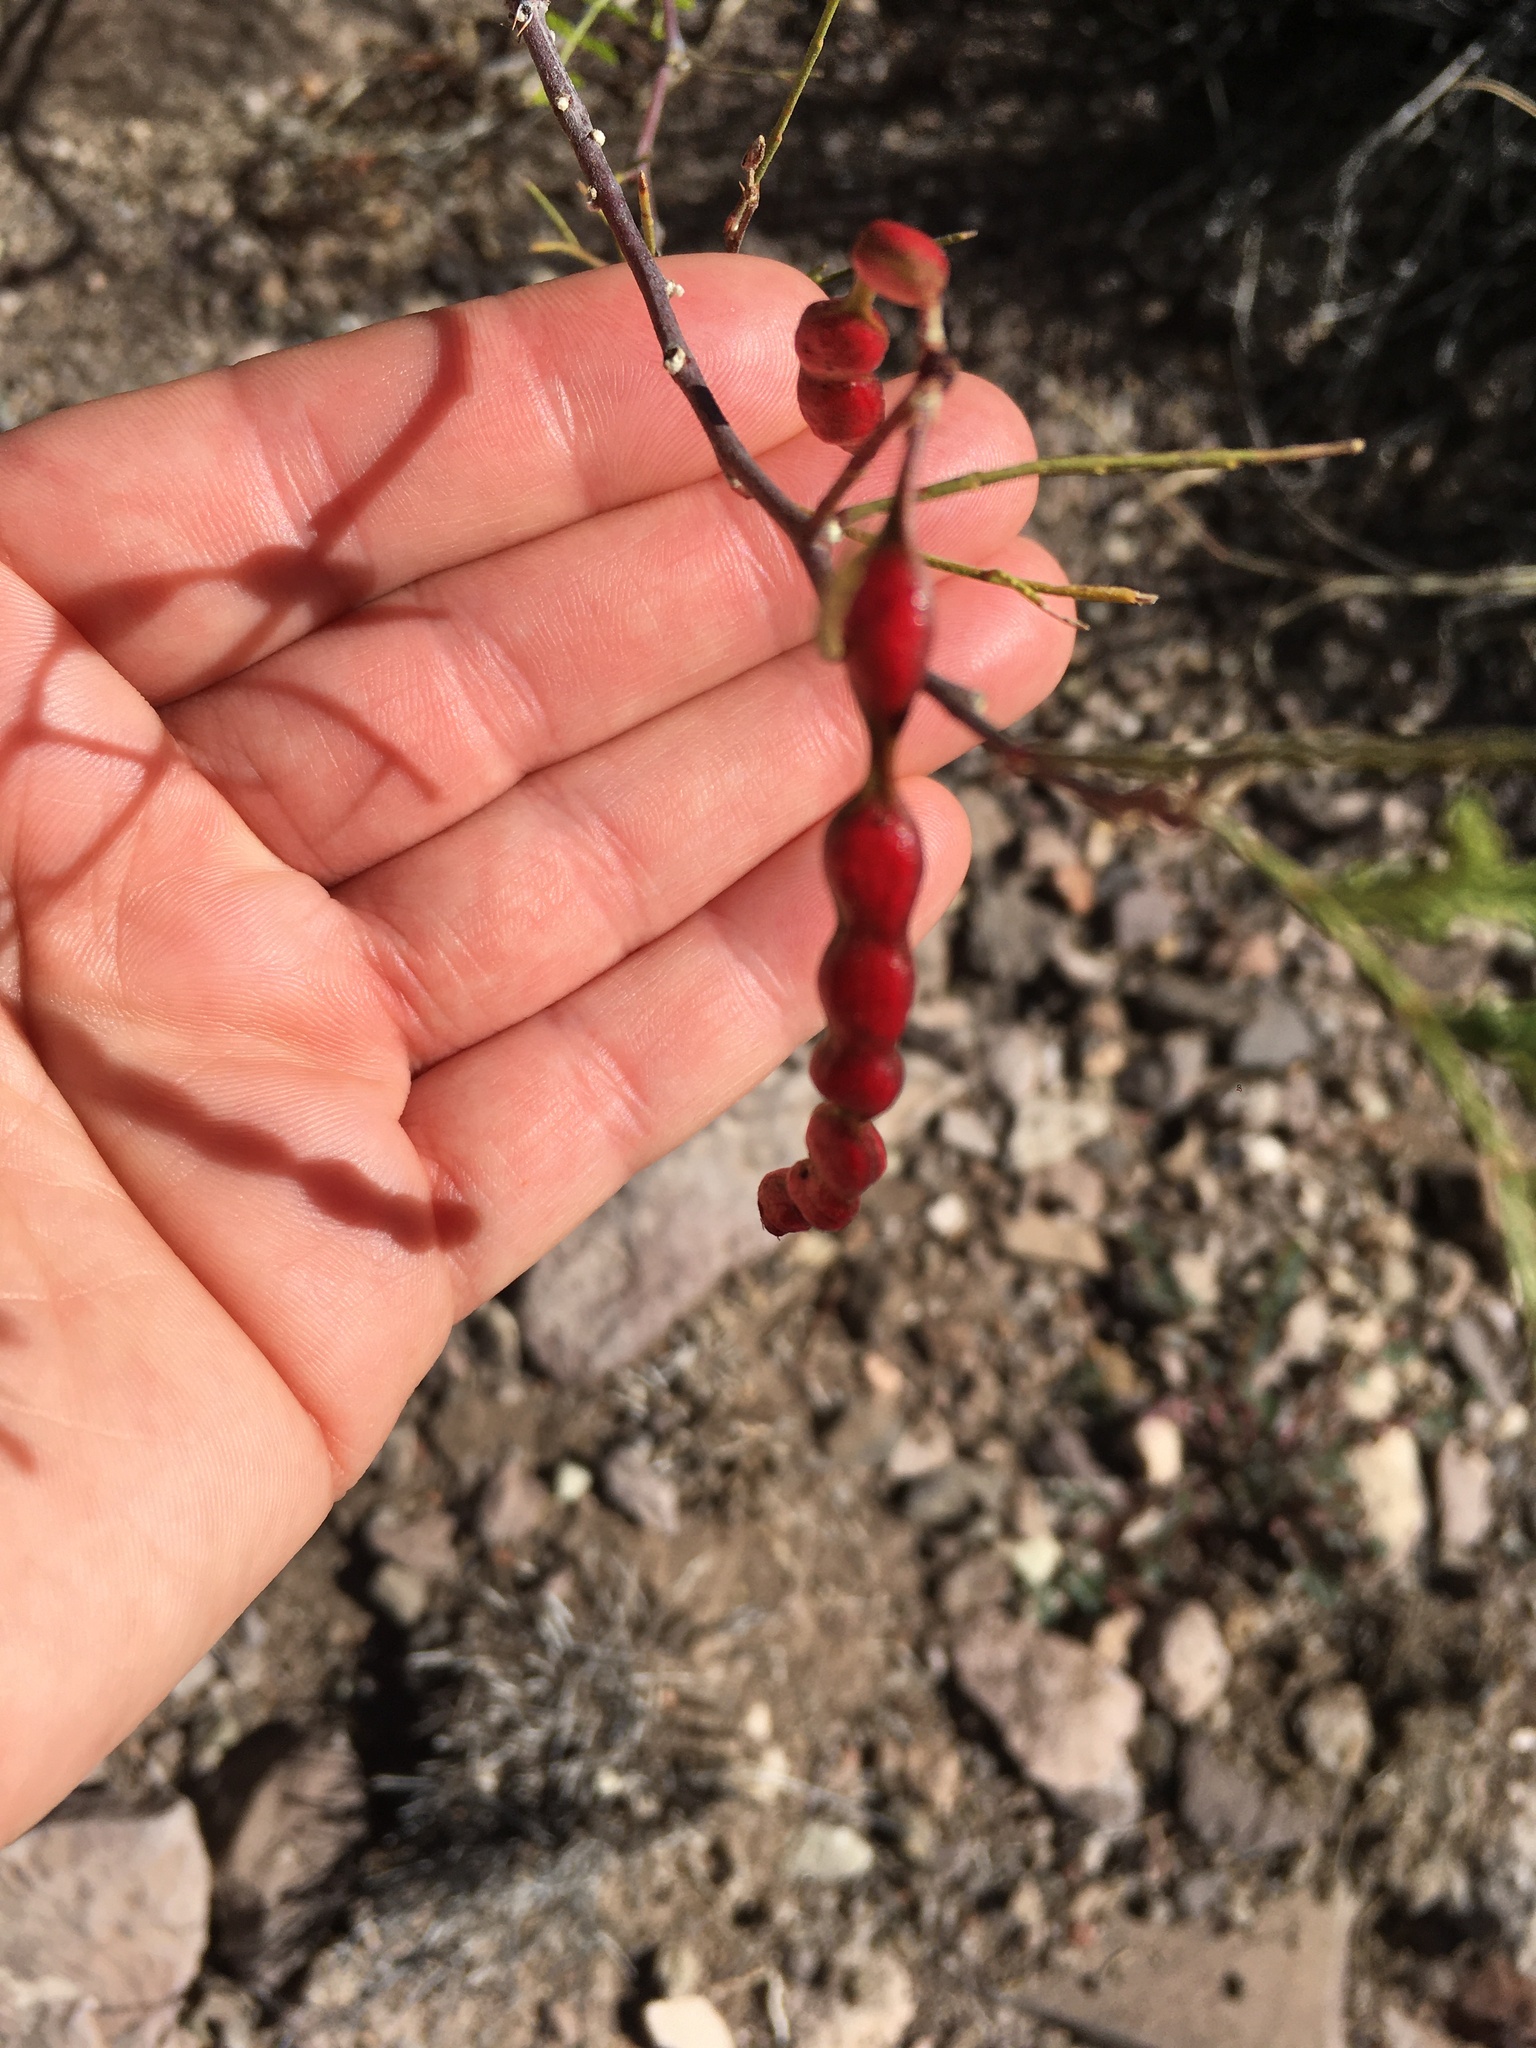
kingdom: Plantae
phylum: Tracheophyta
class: Magnoliopsida
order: Fabales
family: Fabaceae
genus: Vachellia
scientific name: Vachellia constricta
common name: Mescat acacia
